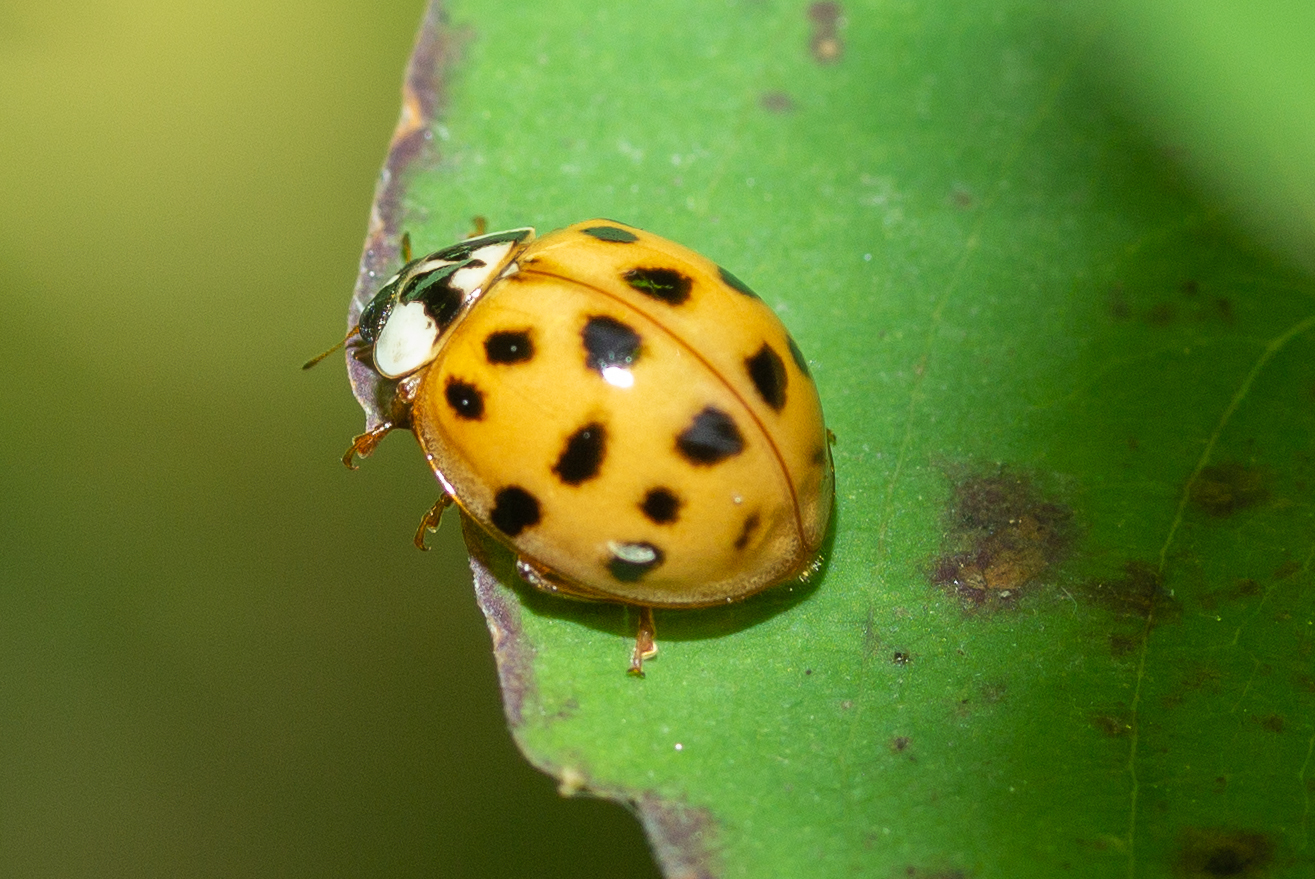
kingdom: Animalia
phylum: Arthropoda
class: Insecta
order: Coleoptera
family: Coccinellidae
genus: Harmonia
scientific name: Harmonia axyridis
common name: Harlequin ladybird
